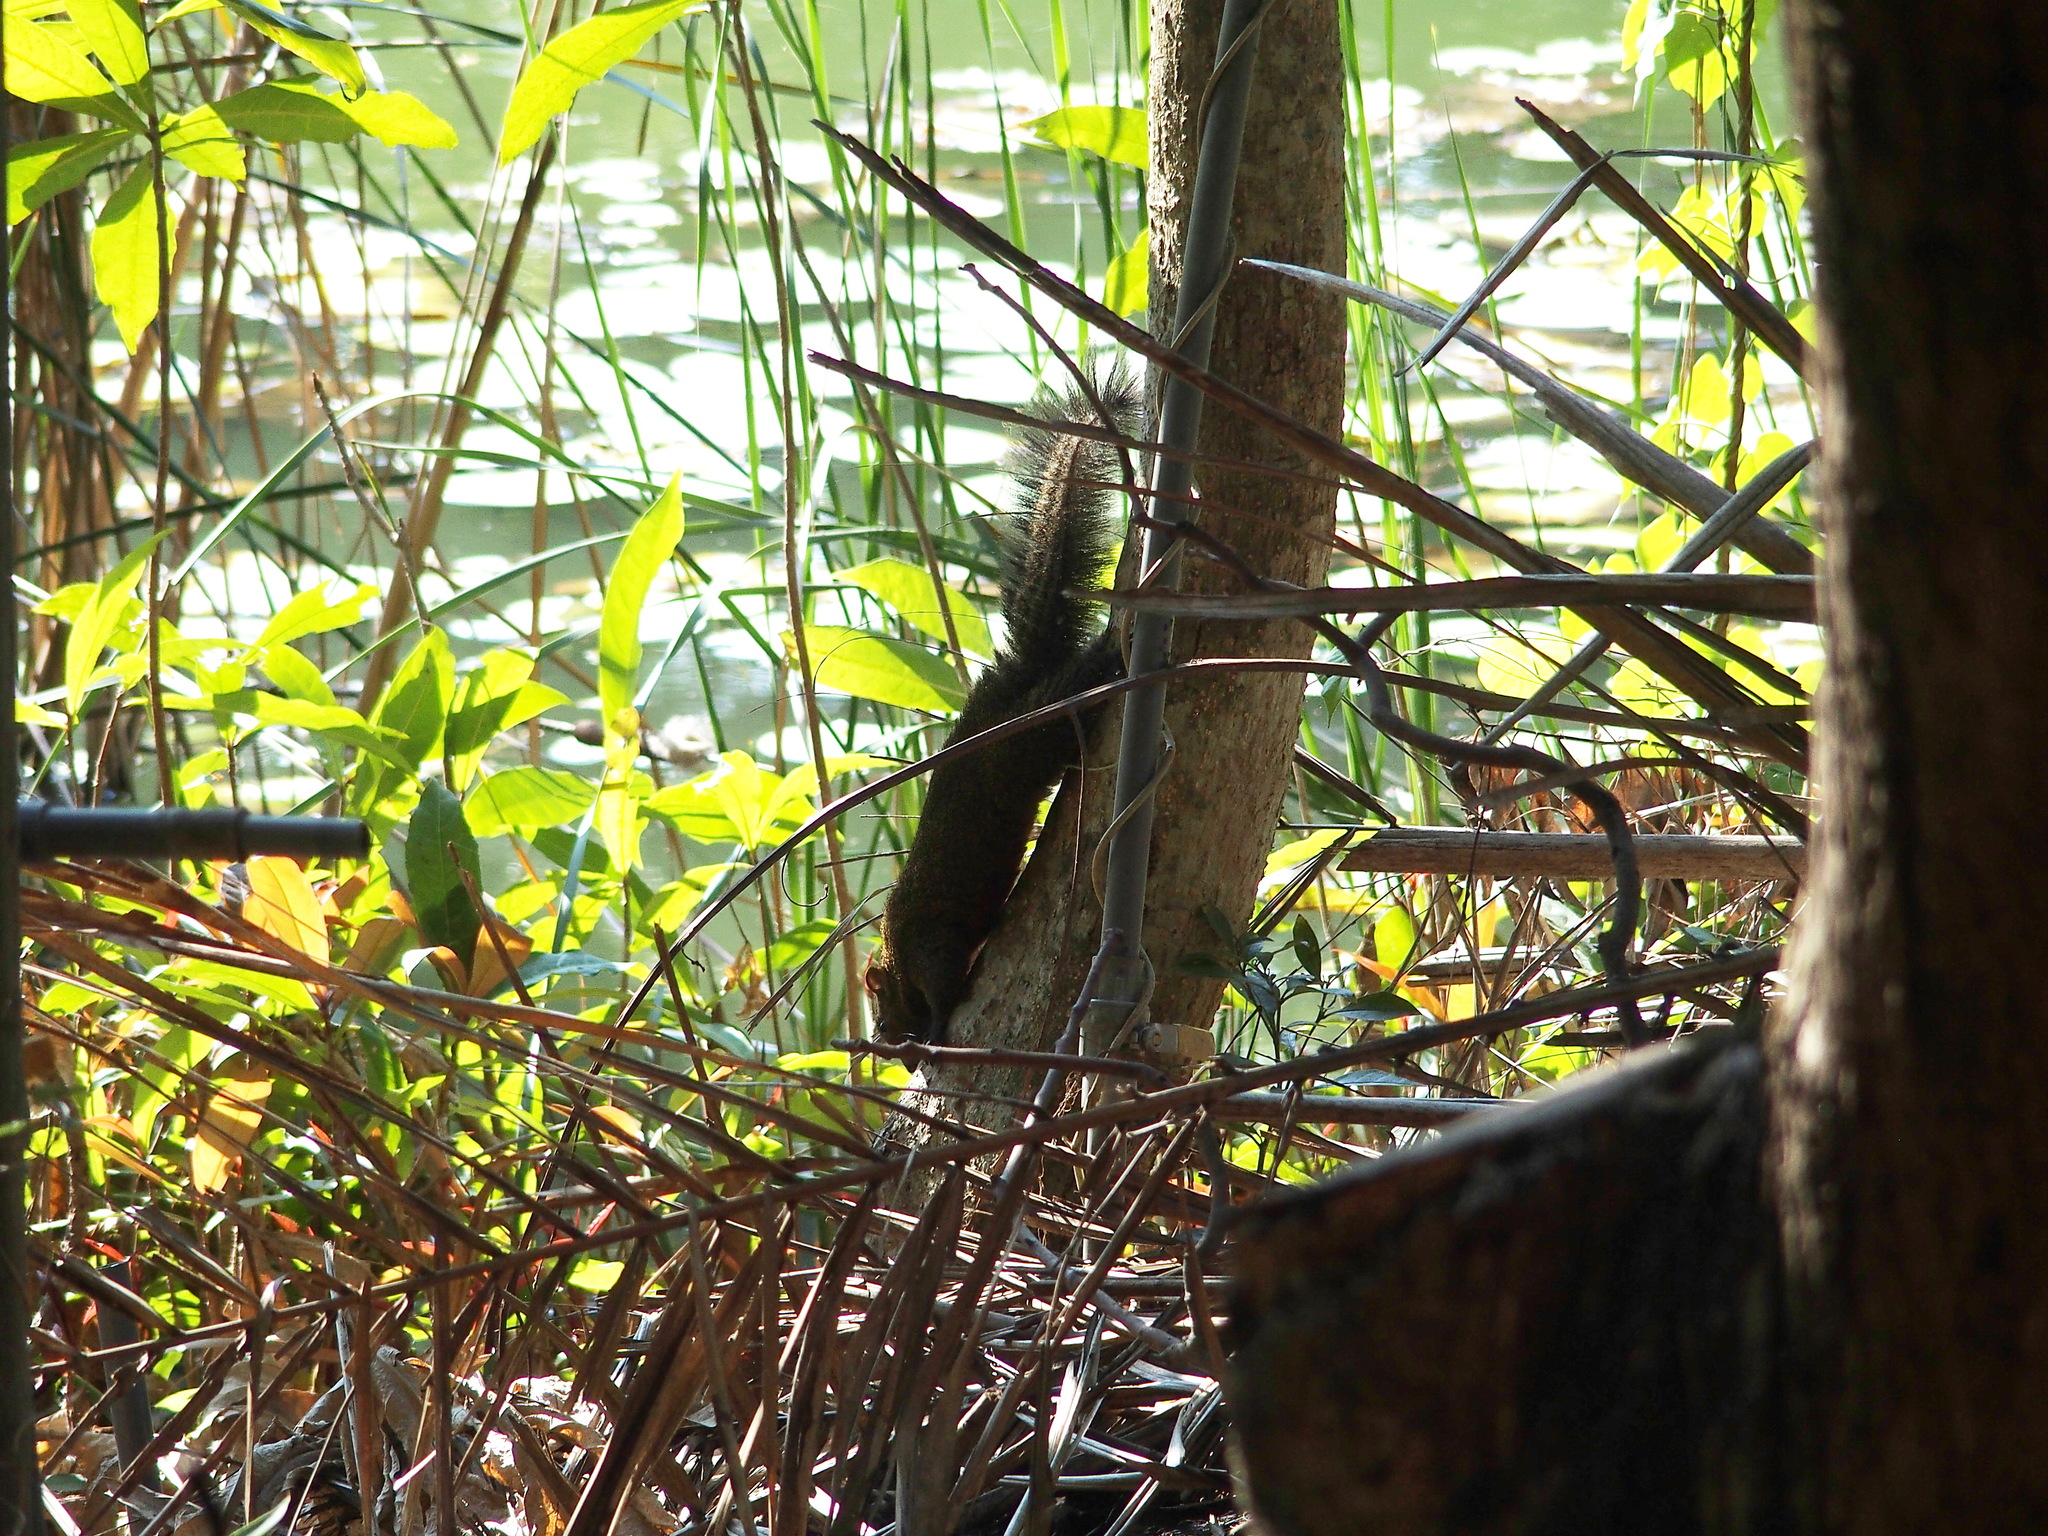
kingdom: Animalia
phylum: Chordata
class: Mammalia
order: Rodentia
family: Sciuridae
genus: Callosciurus
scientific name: Callosciurus erythraeus
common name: Pallas's squirrel
